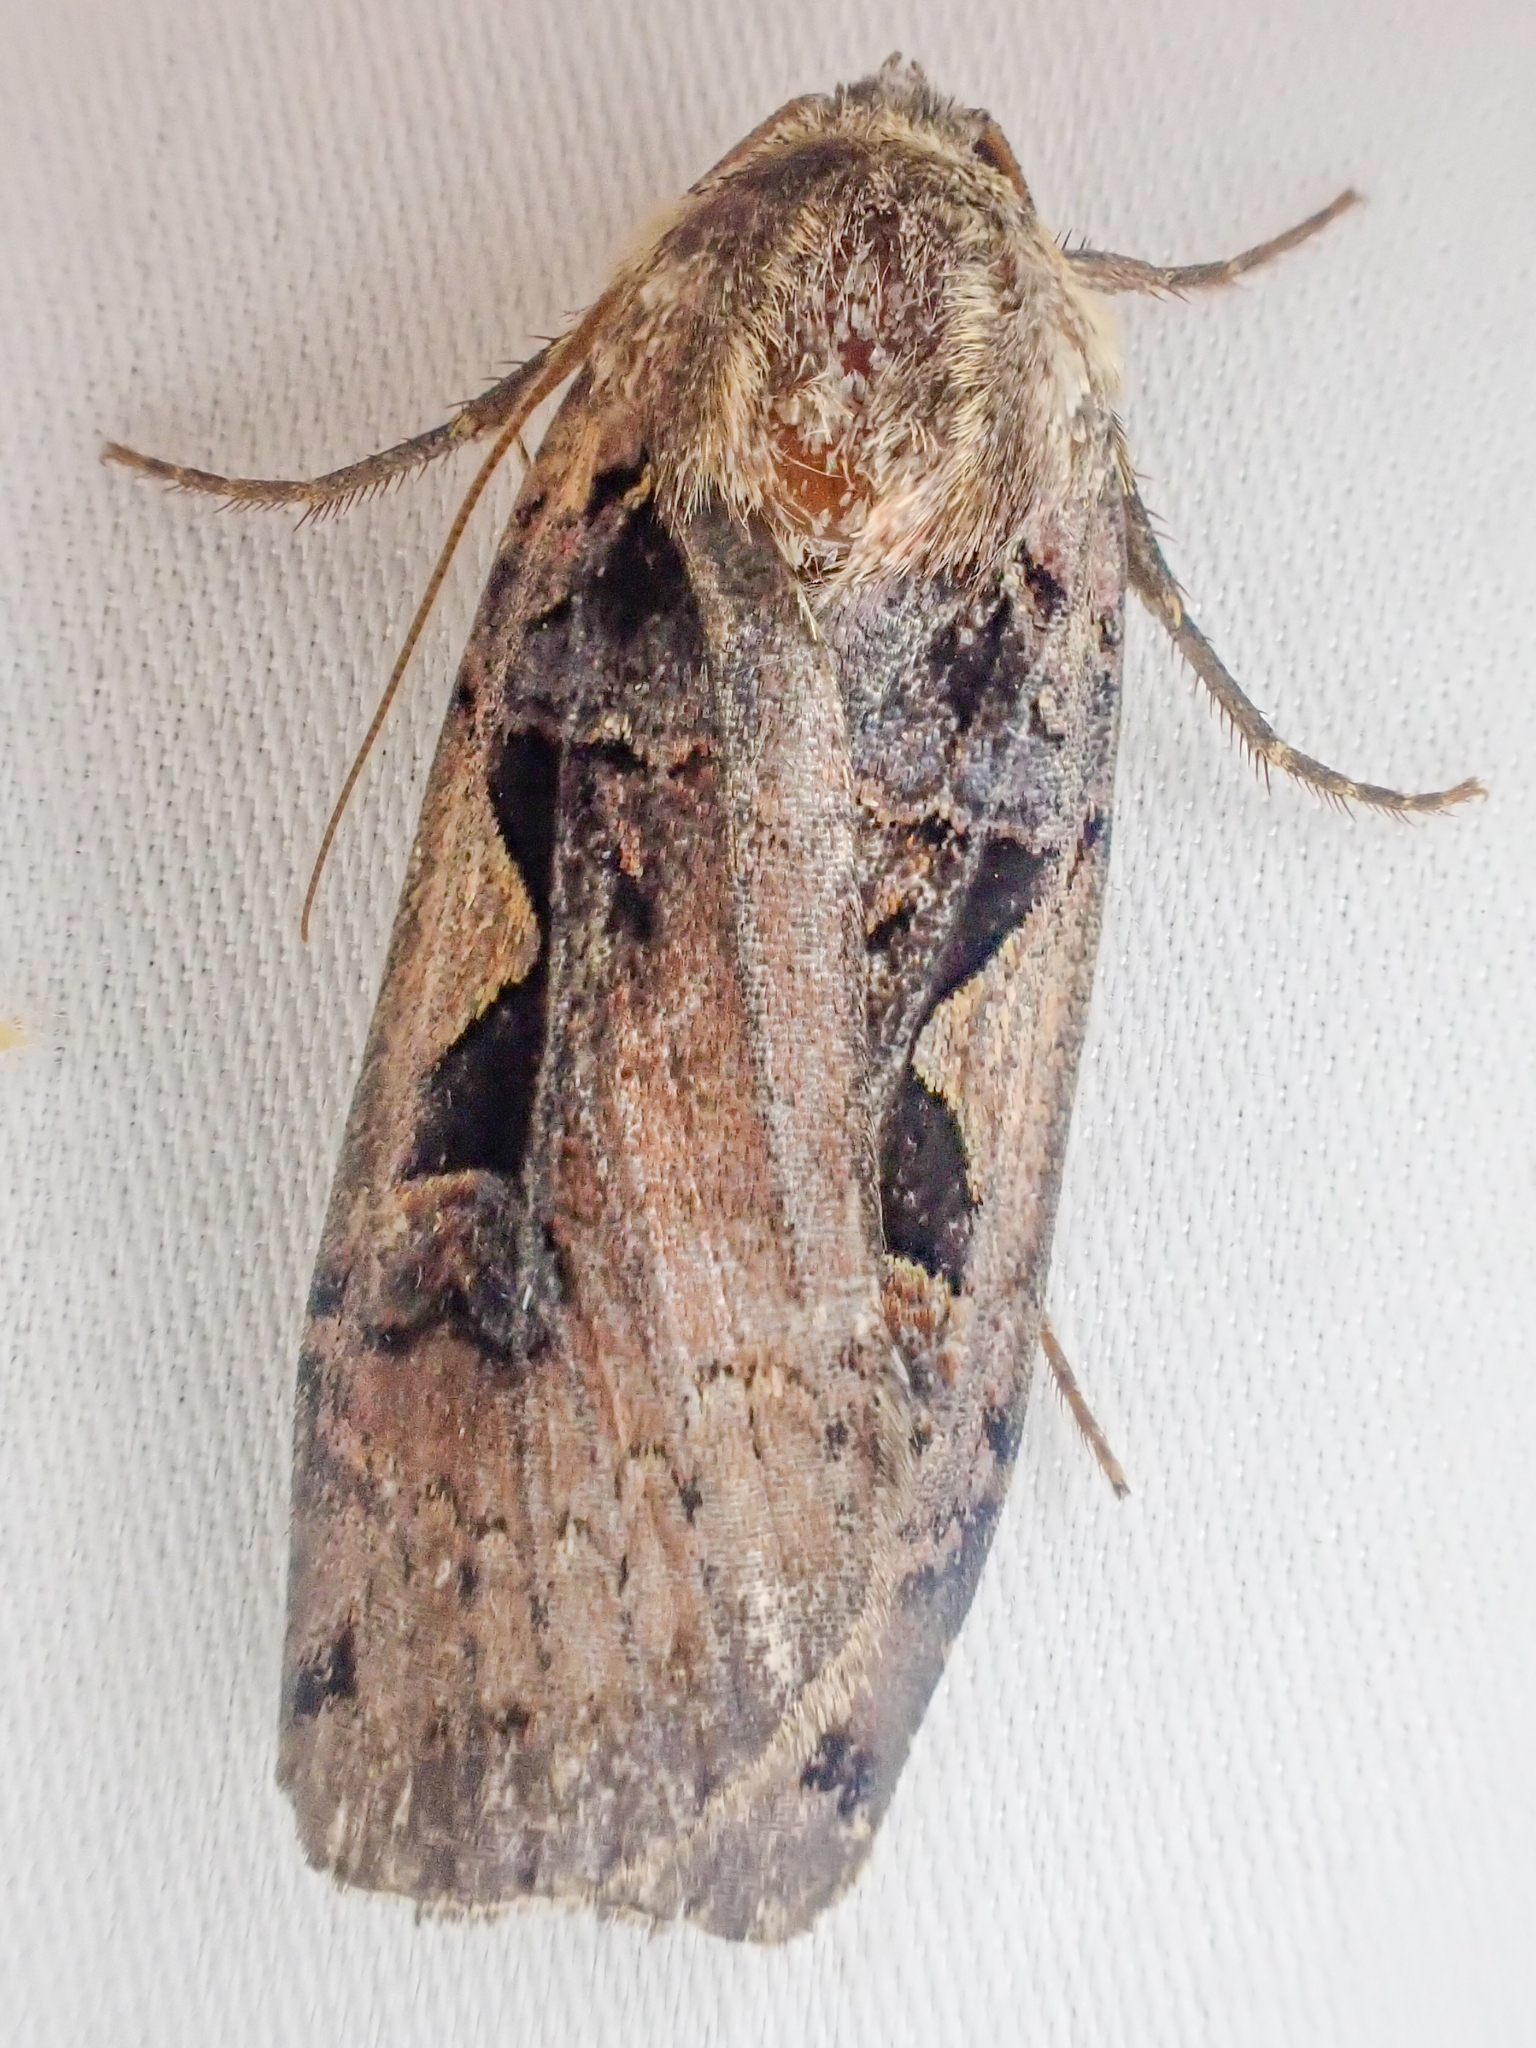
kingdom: Animalia
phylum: Arthropoda
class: Insecta
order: Lepidoptera
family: Noctuidae
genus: Xestia
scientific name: Xestia c-nigrum
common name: Setaceous hebrew character
